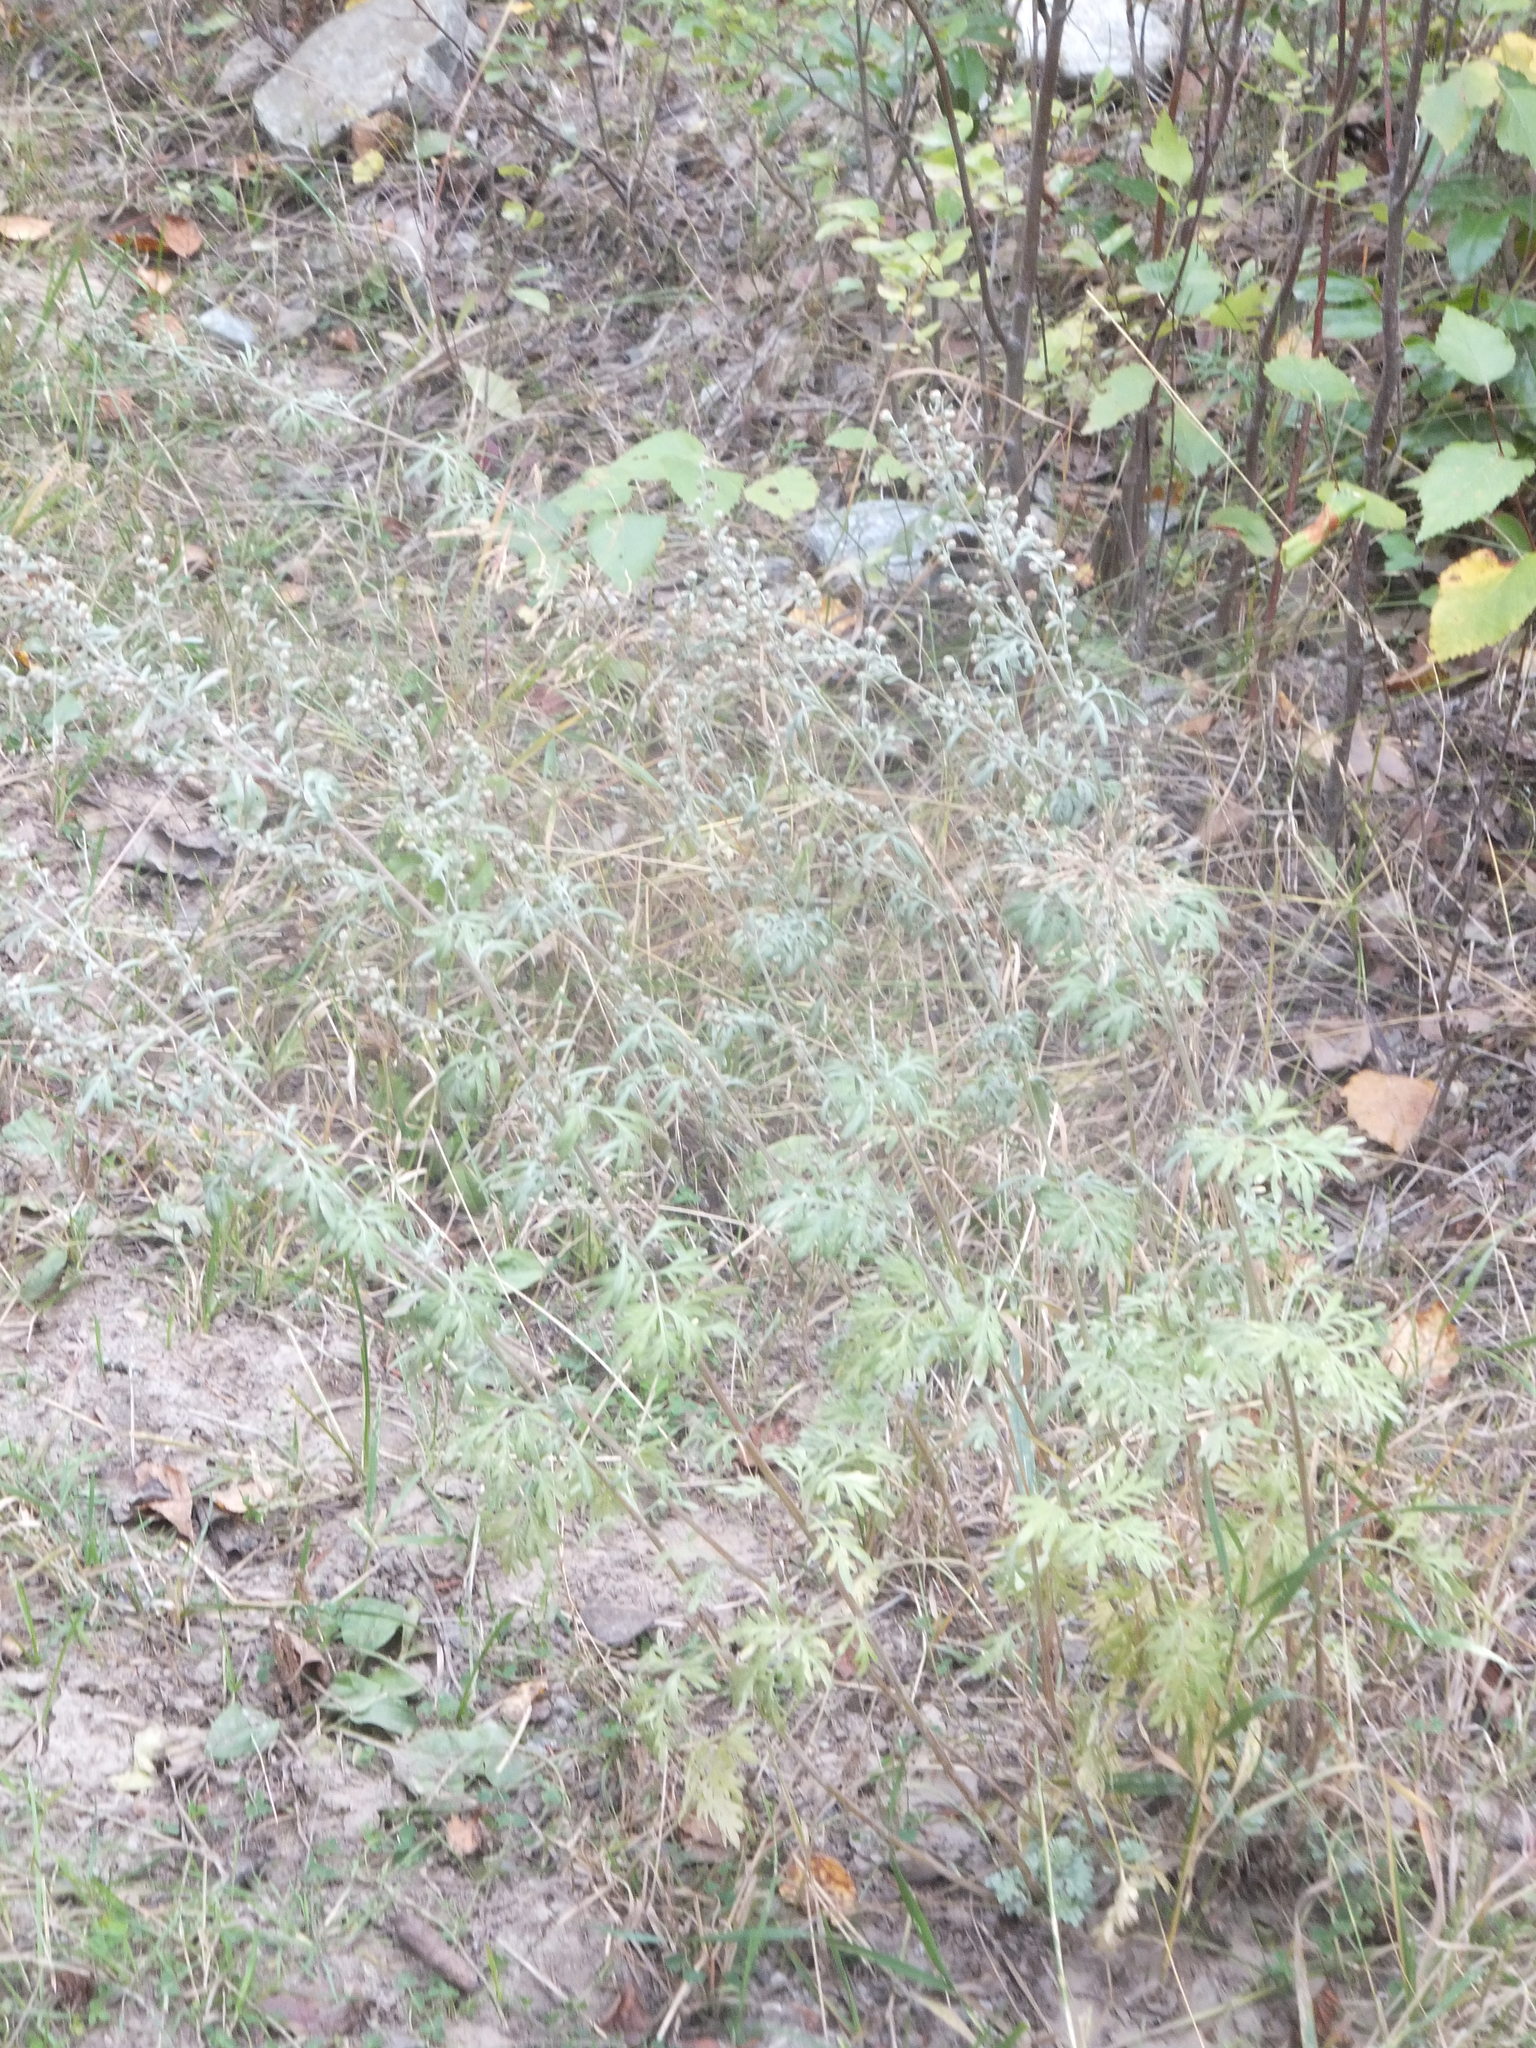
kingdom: Plantae
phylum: Tracheophyta
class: Magnoliopsida
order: Asterales
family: Asteraceae
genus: Artemisia
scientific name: Artemisia absinthium
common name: Wormwood
